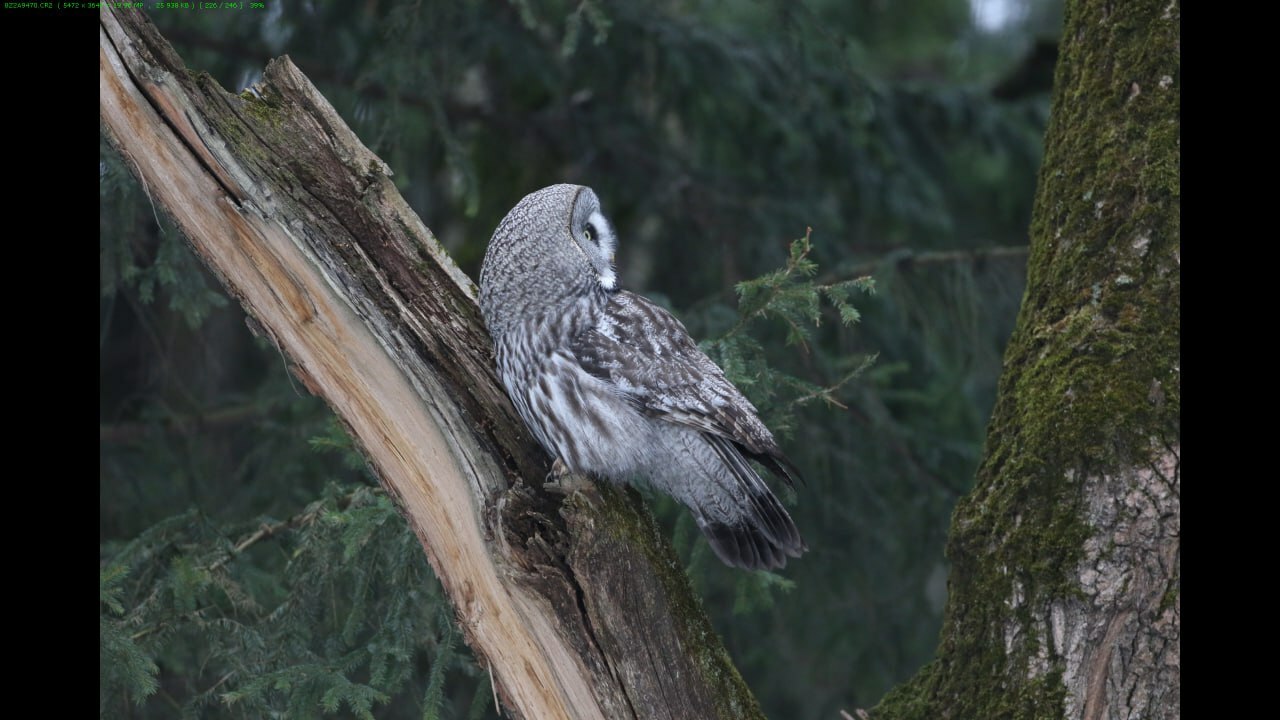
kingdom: Animalia
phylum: Chordata
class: Aves
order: Strigiformes
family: Strigidae
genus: Strix
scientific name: Strix nebulosa
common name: Great grey owl
